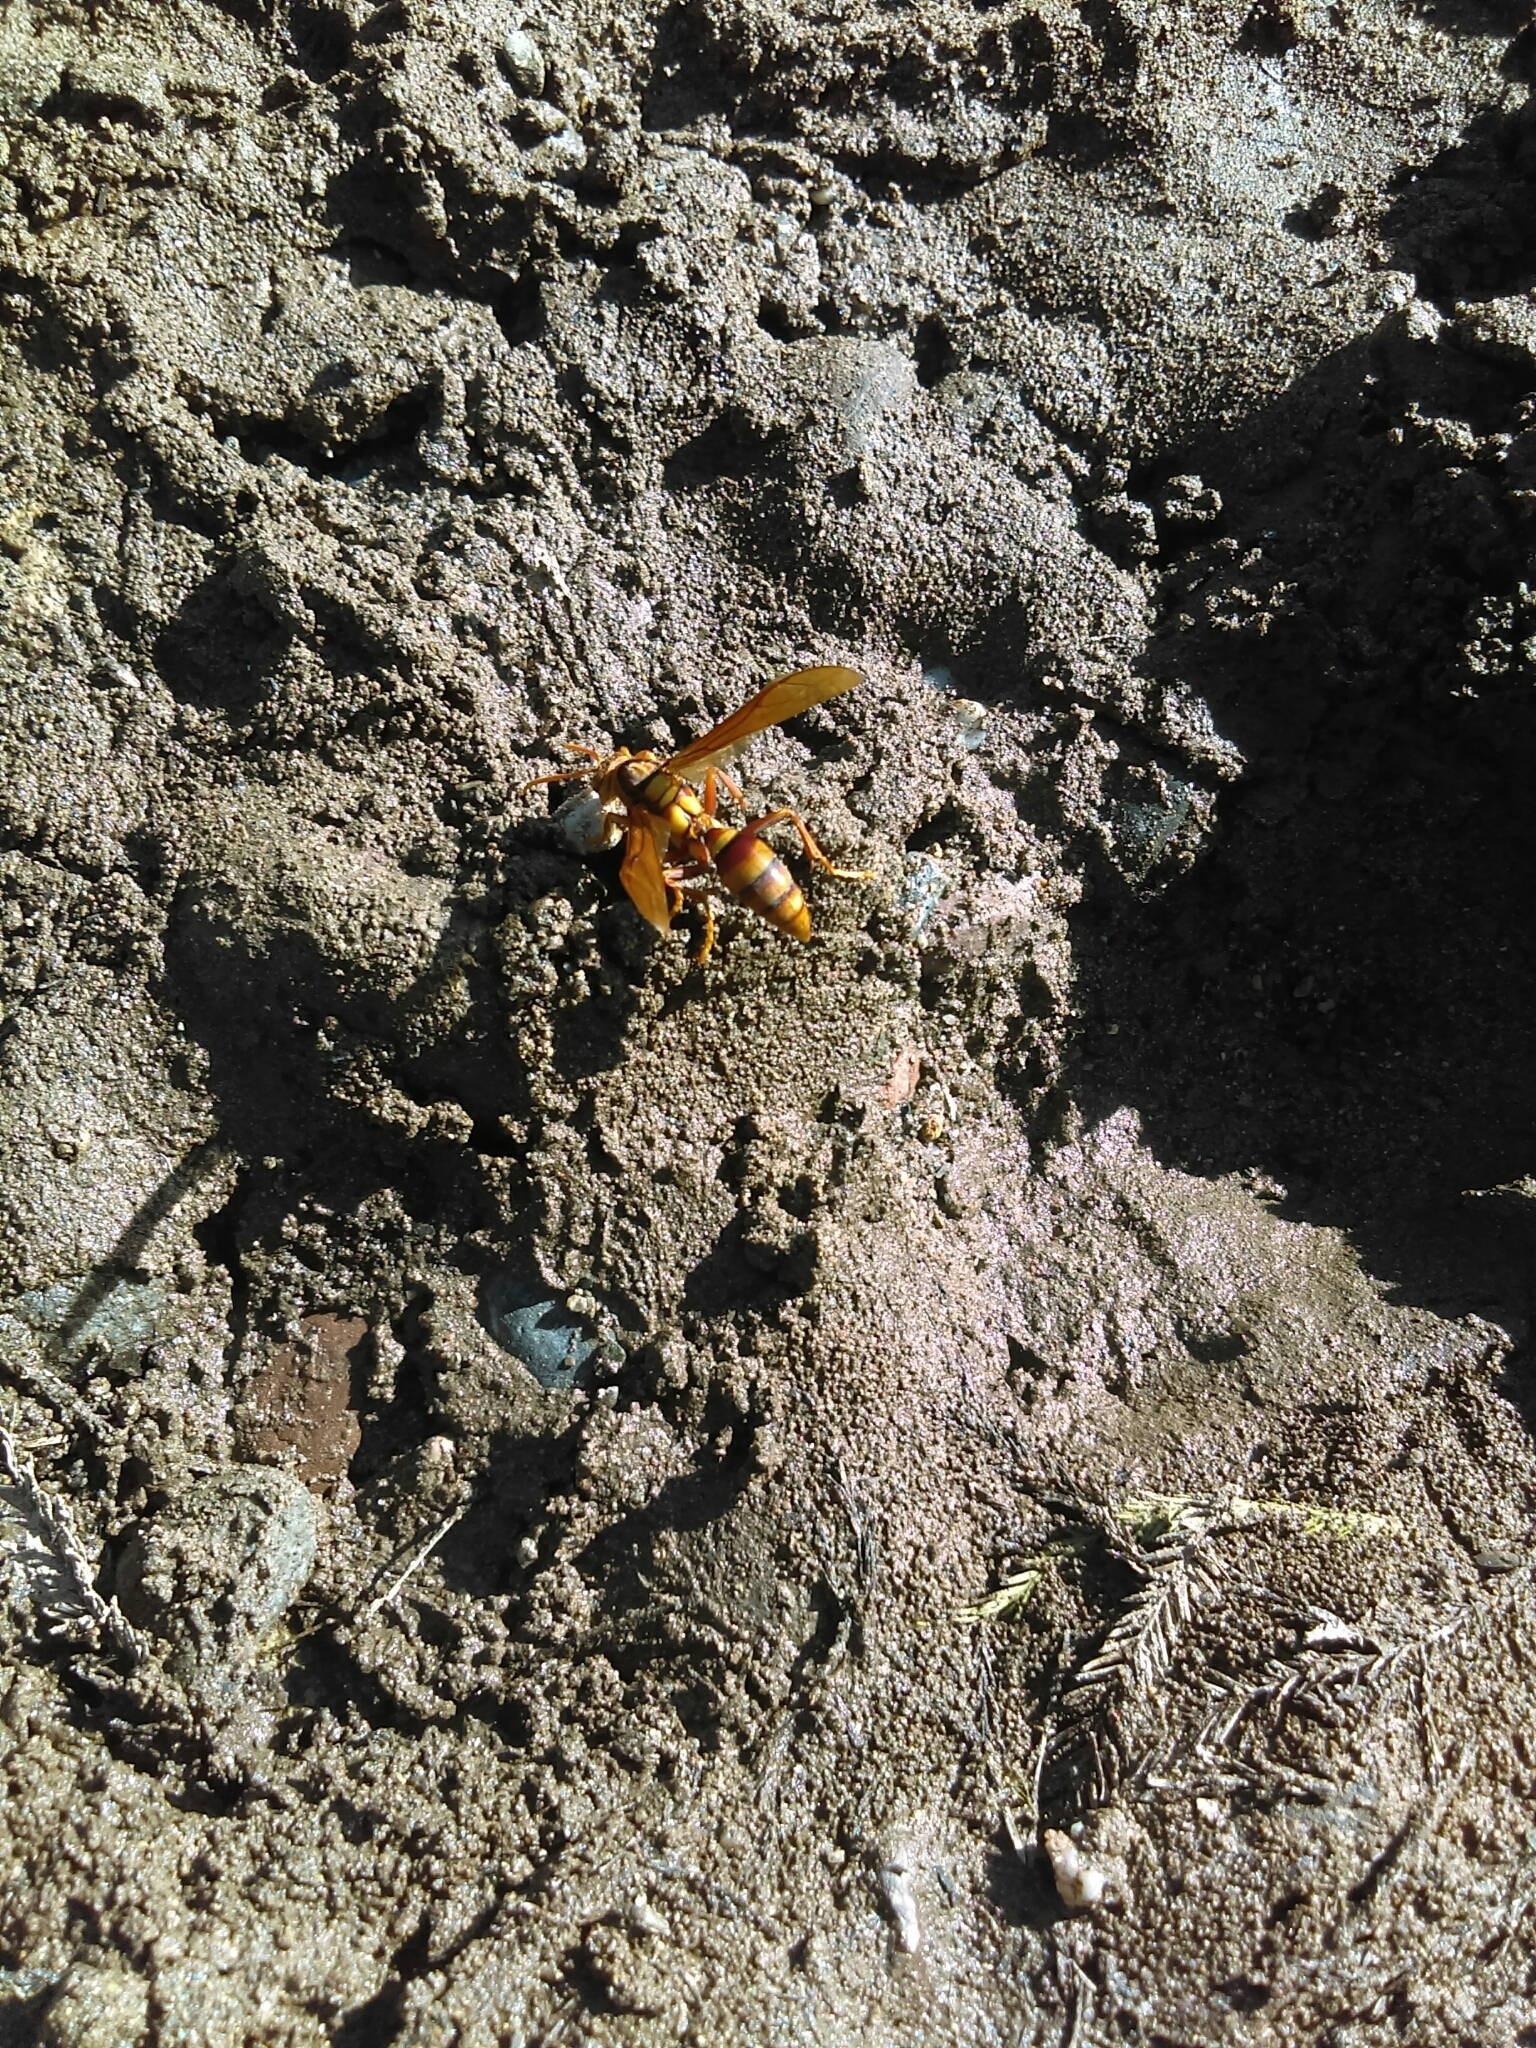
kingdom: Animalia
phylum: Arthropoda
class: Insecta
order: Hymenoptera
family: Eumenidae
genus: Polistes
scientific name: Polistes carnifex
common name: Paper wasp
